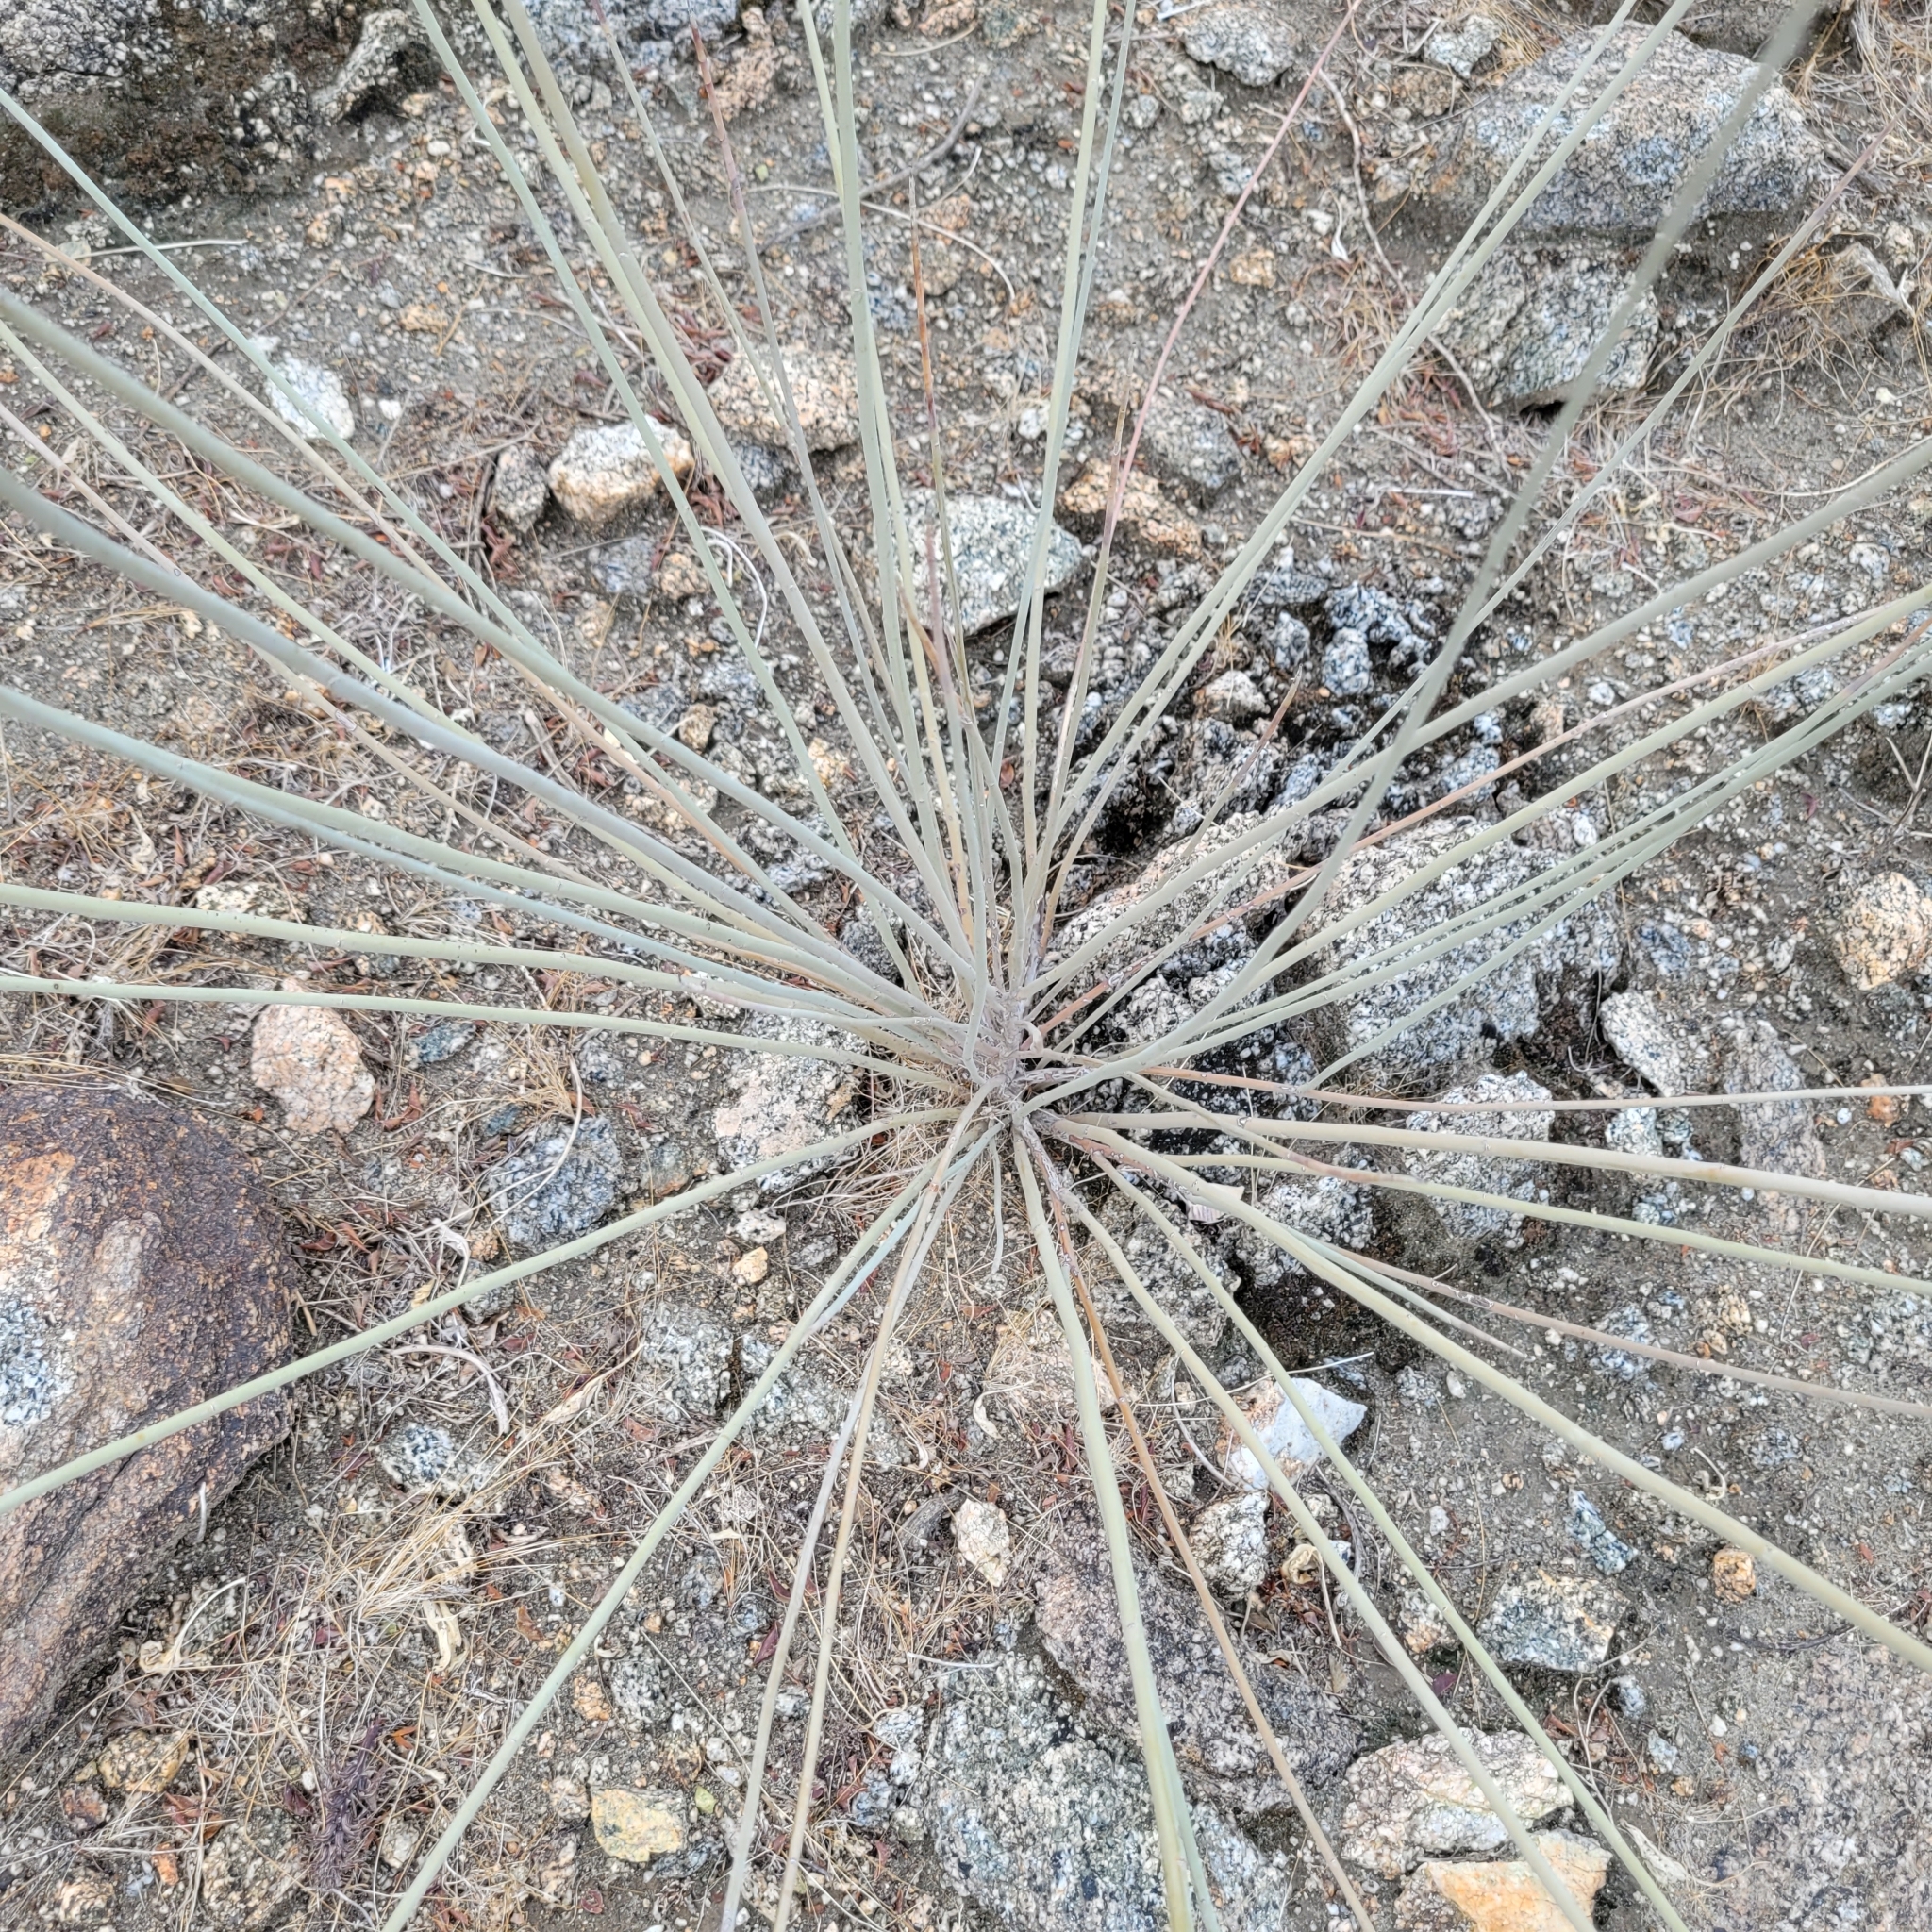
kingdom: Plantae
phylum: Tracheophyta
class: Magnoliopsida
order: Fabales
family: Fabaceae
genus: Hoffmannseggia
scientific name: Hoffmannseggia microphylla
